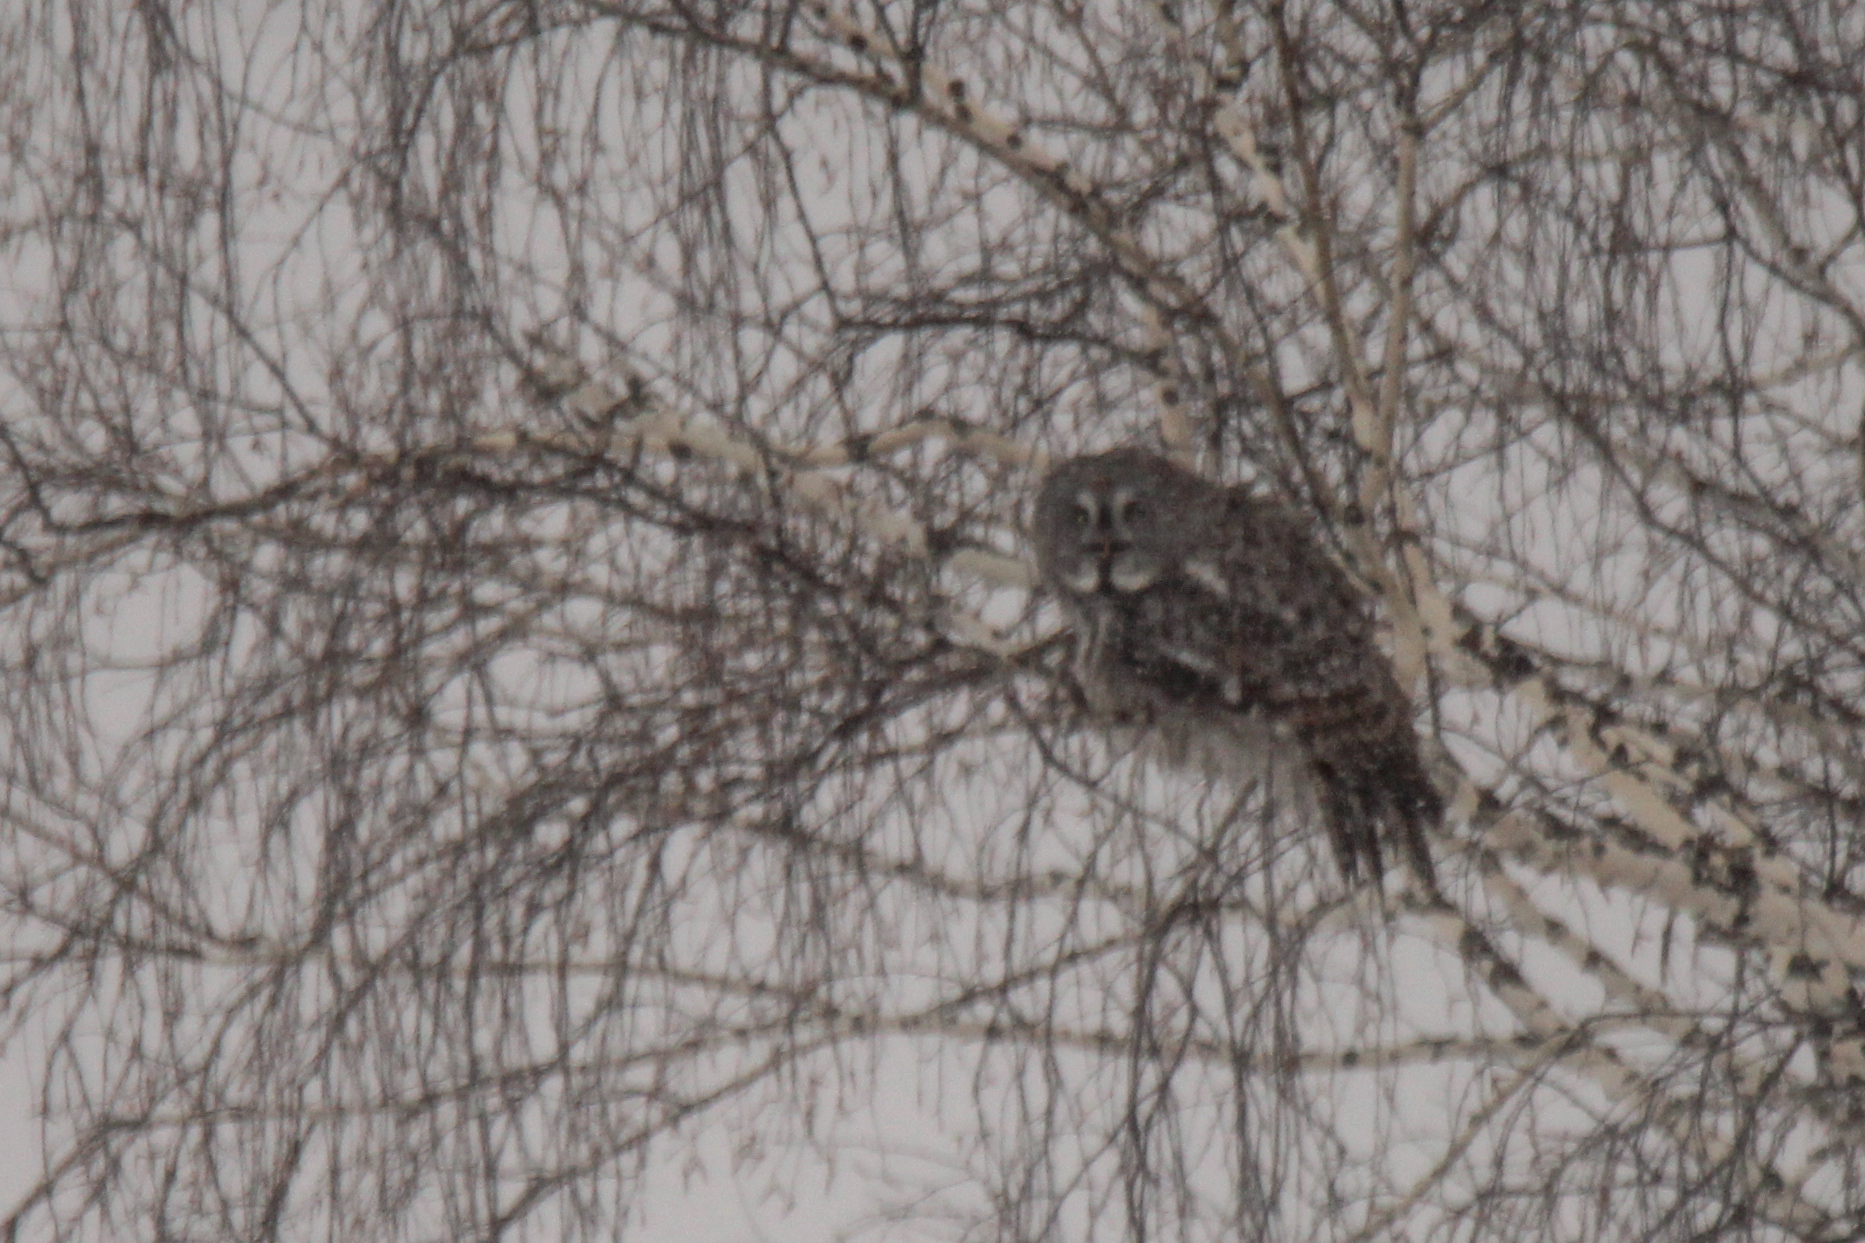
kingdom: Animalia
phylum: Chordata
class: Aves
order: Strigiformes
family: Strigidae
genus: Strix
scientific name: Strix nebulosa
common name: Great grey owl
